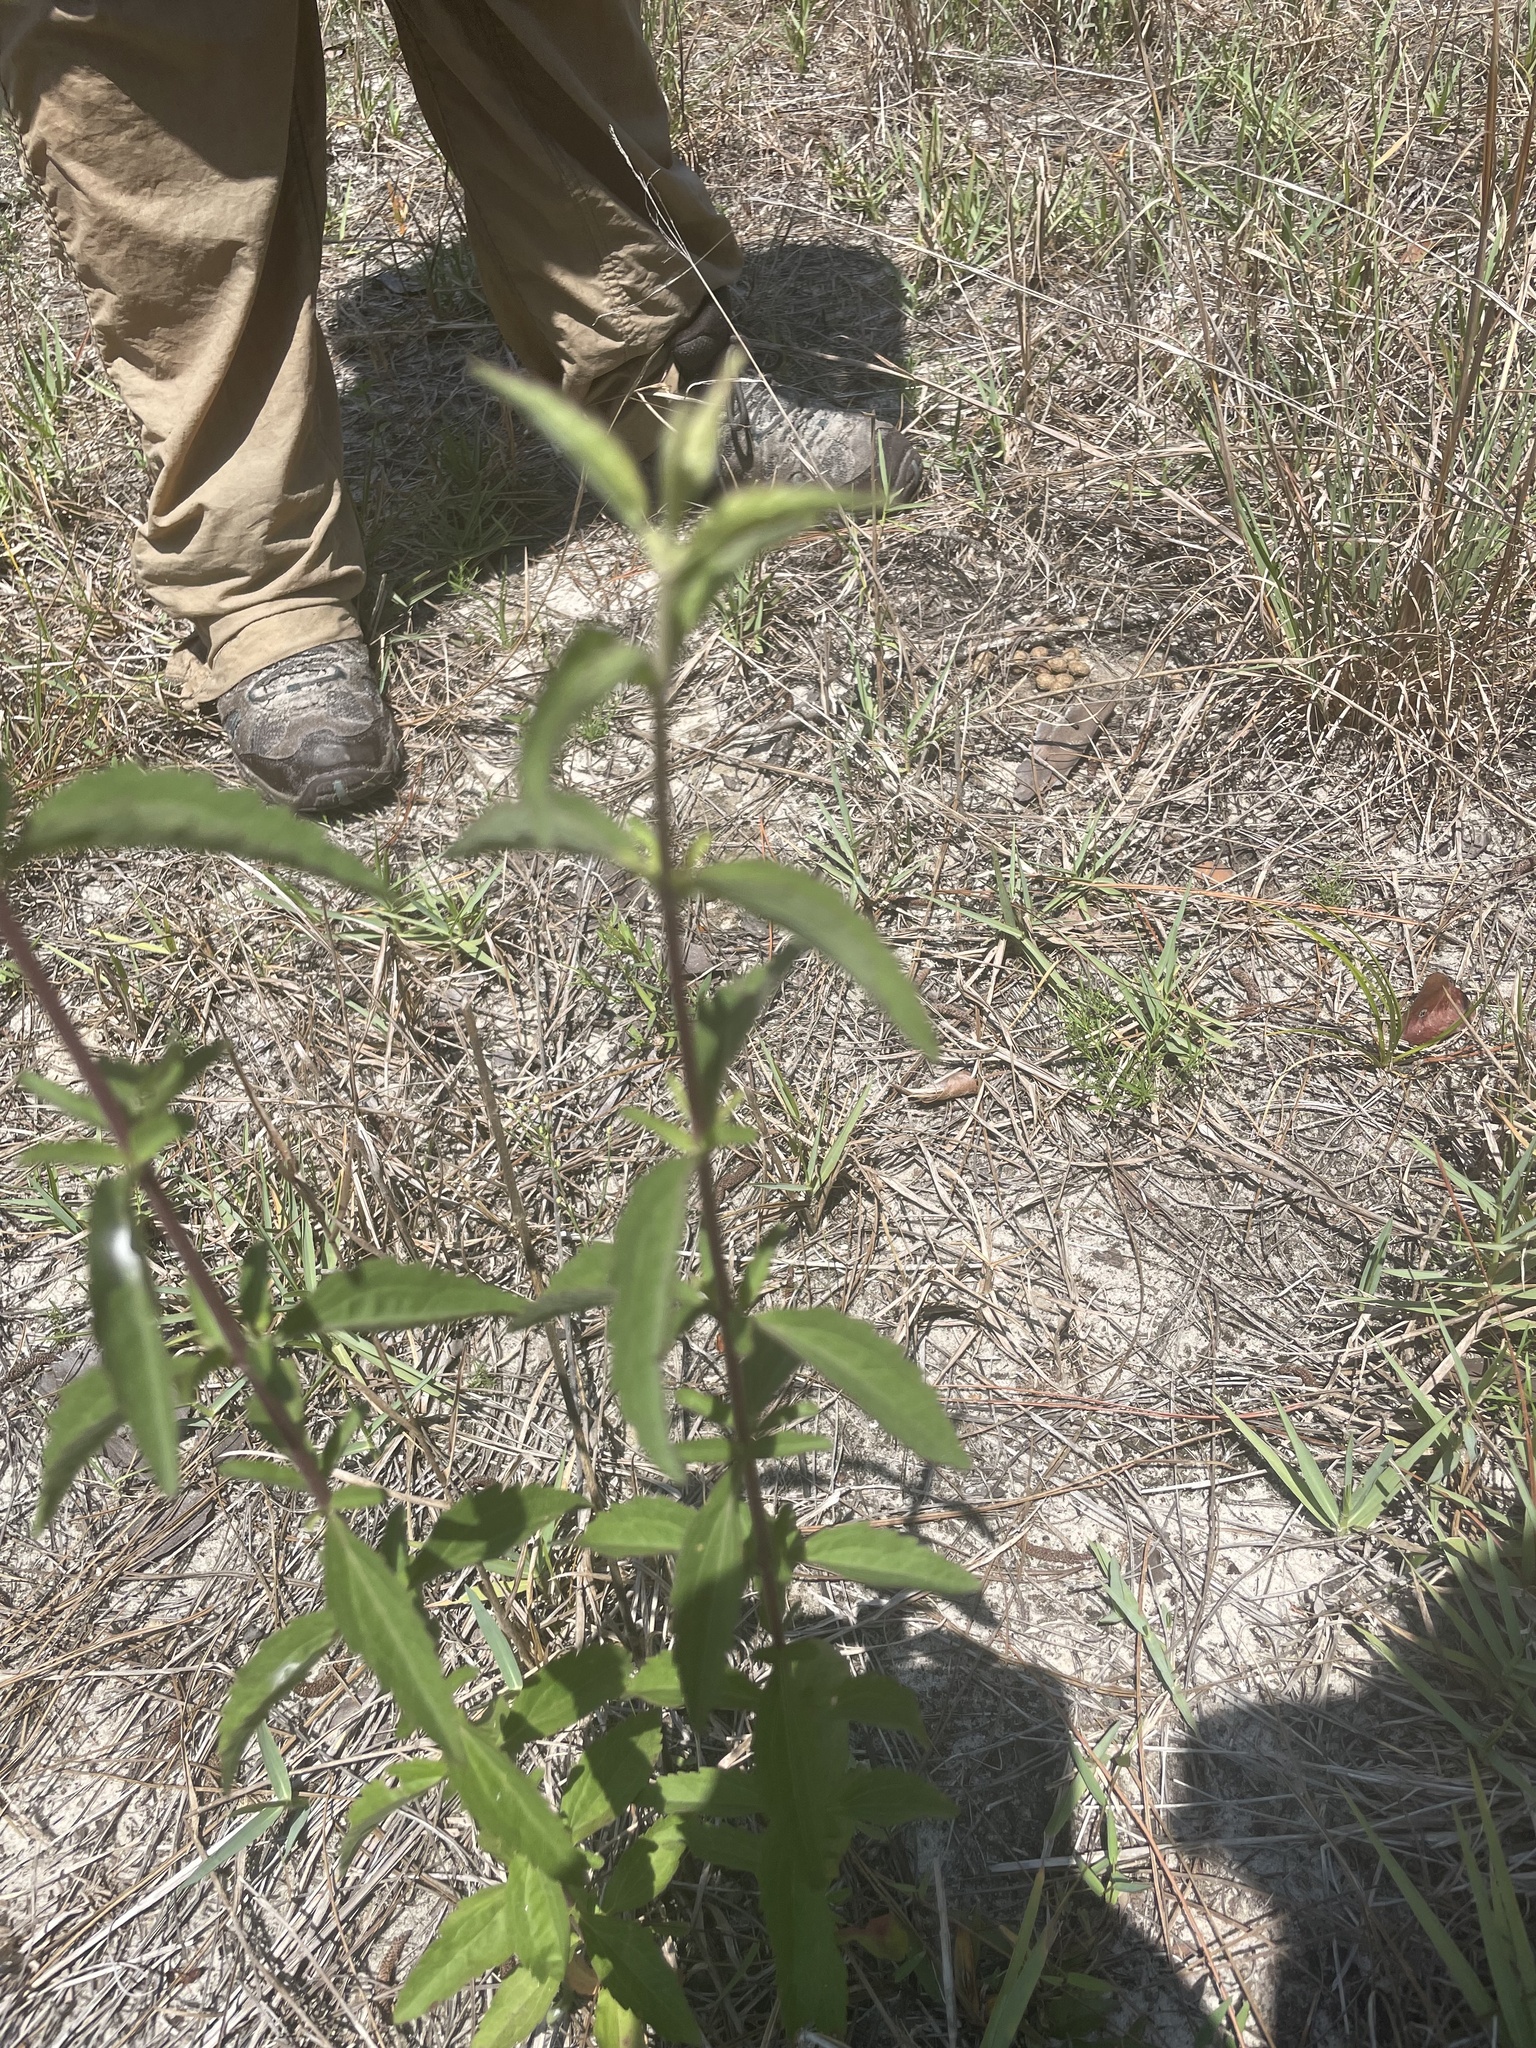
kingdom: Plantae
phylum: Tracheophyta
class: Magnoliopsida
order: Asterales
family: Asteraceae
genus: Eupatorium
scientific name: Eupatorium petaloideum
